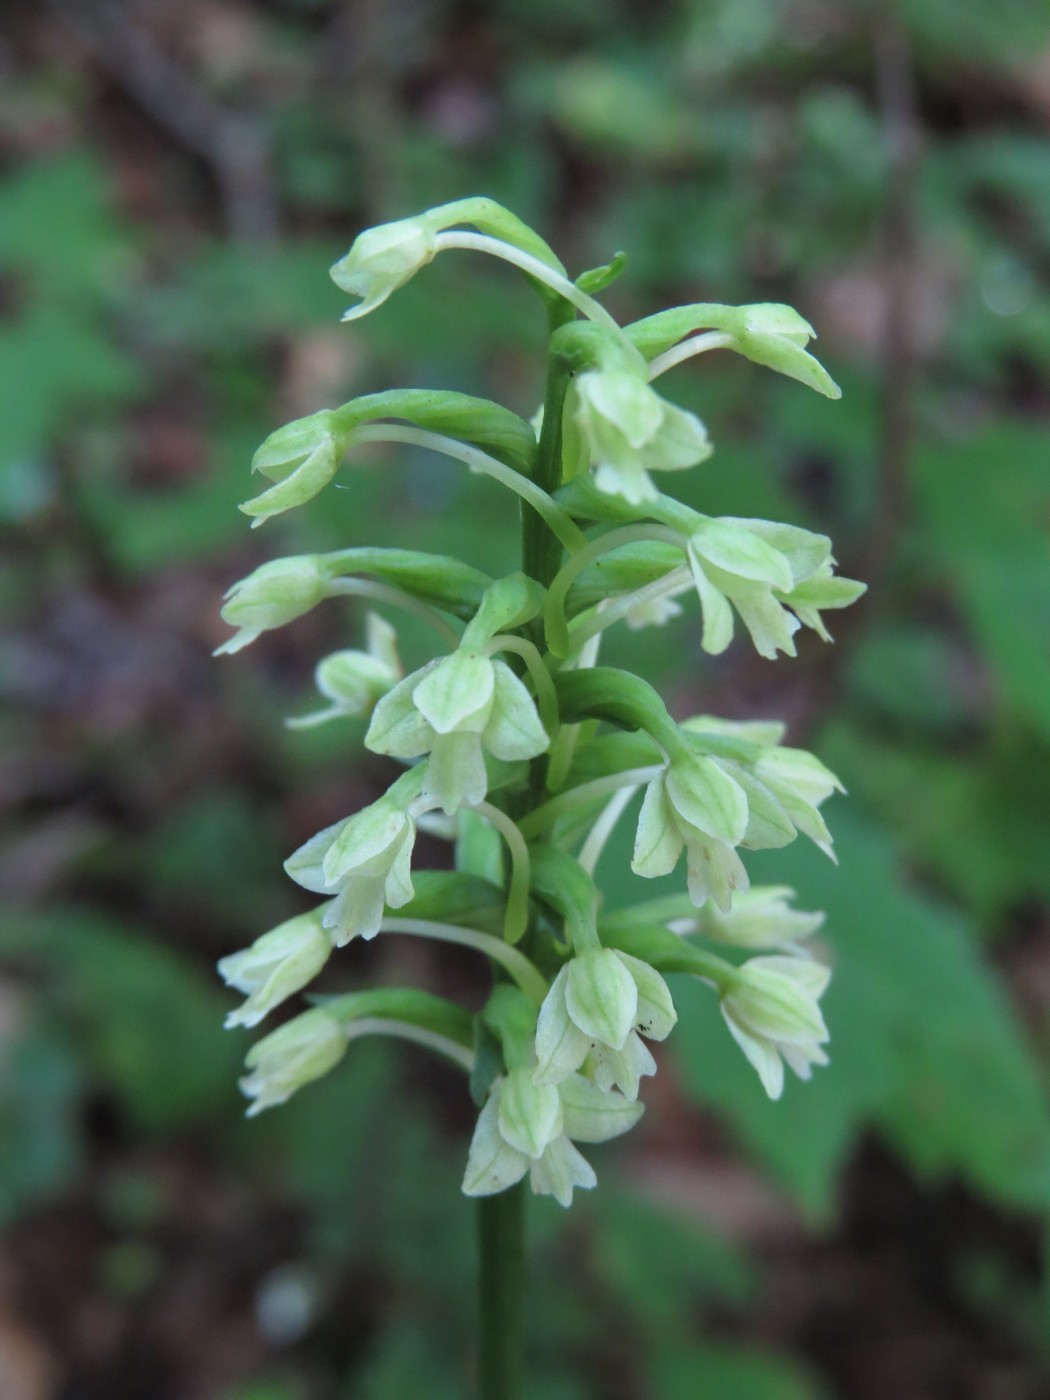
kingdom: Plantae
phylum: Tracheophyta
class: Liliopsida
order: Asparagales
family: Orchidaceae
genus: Platanthera
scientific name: Platanthera clavellata
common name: Club-spur orchid
